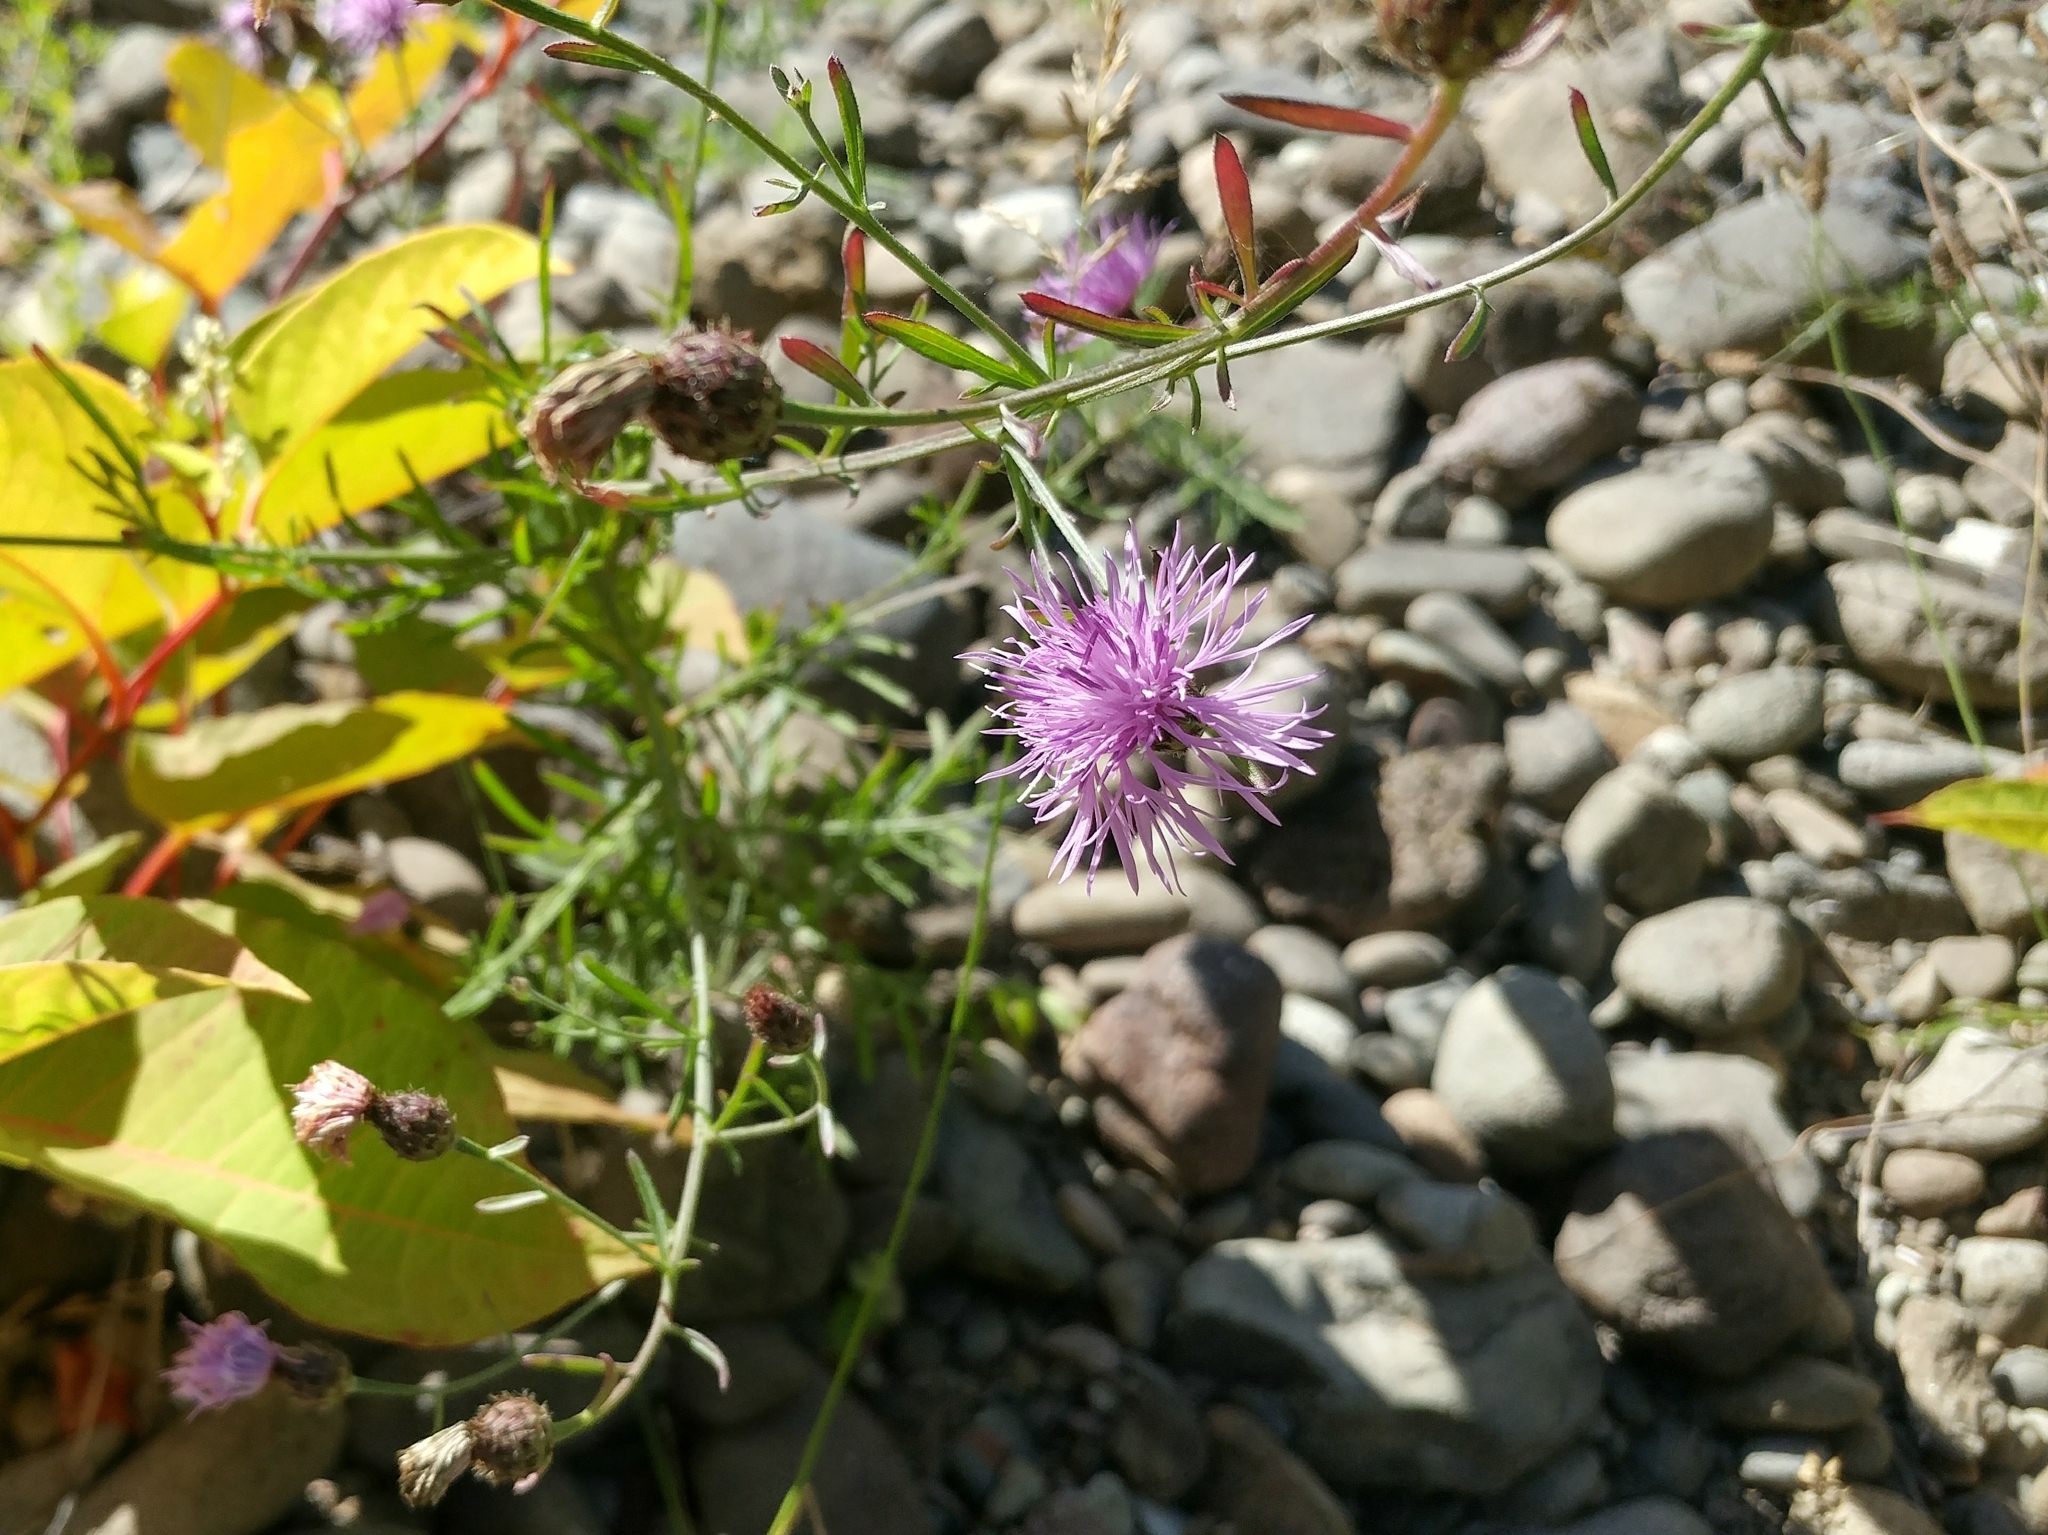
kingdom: Plantae
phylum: Tracheophyta
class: Magnoliopsida
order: Asterales
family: Asteraceae
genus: Centaurea
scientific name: Centaurea stoebe
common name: Spotted knapweed
